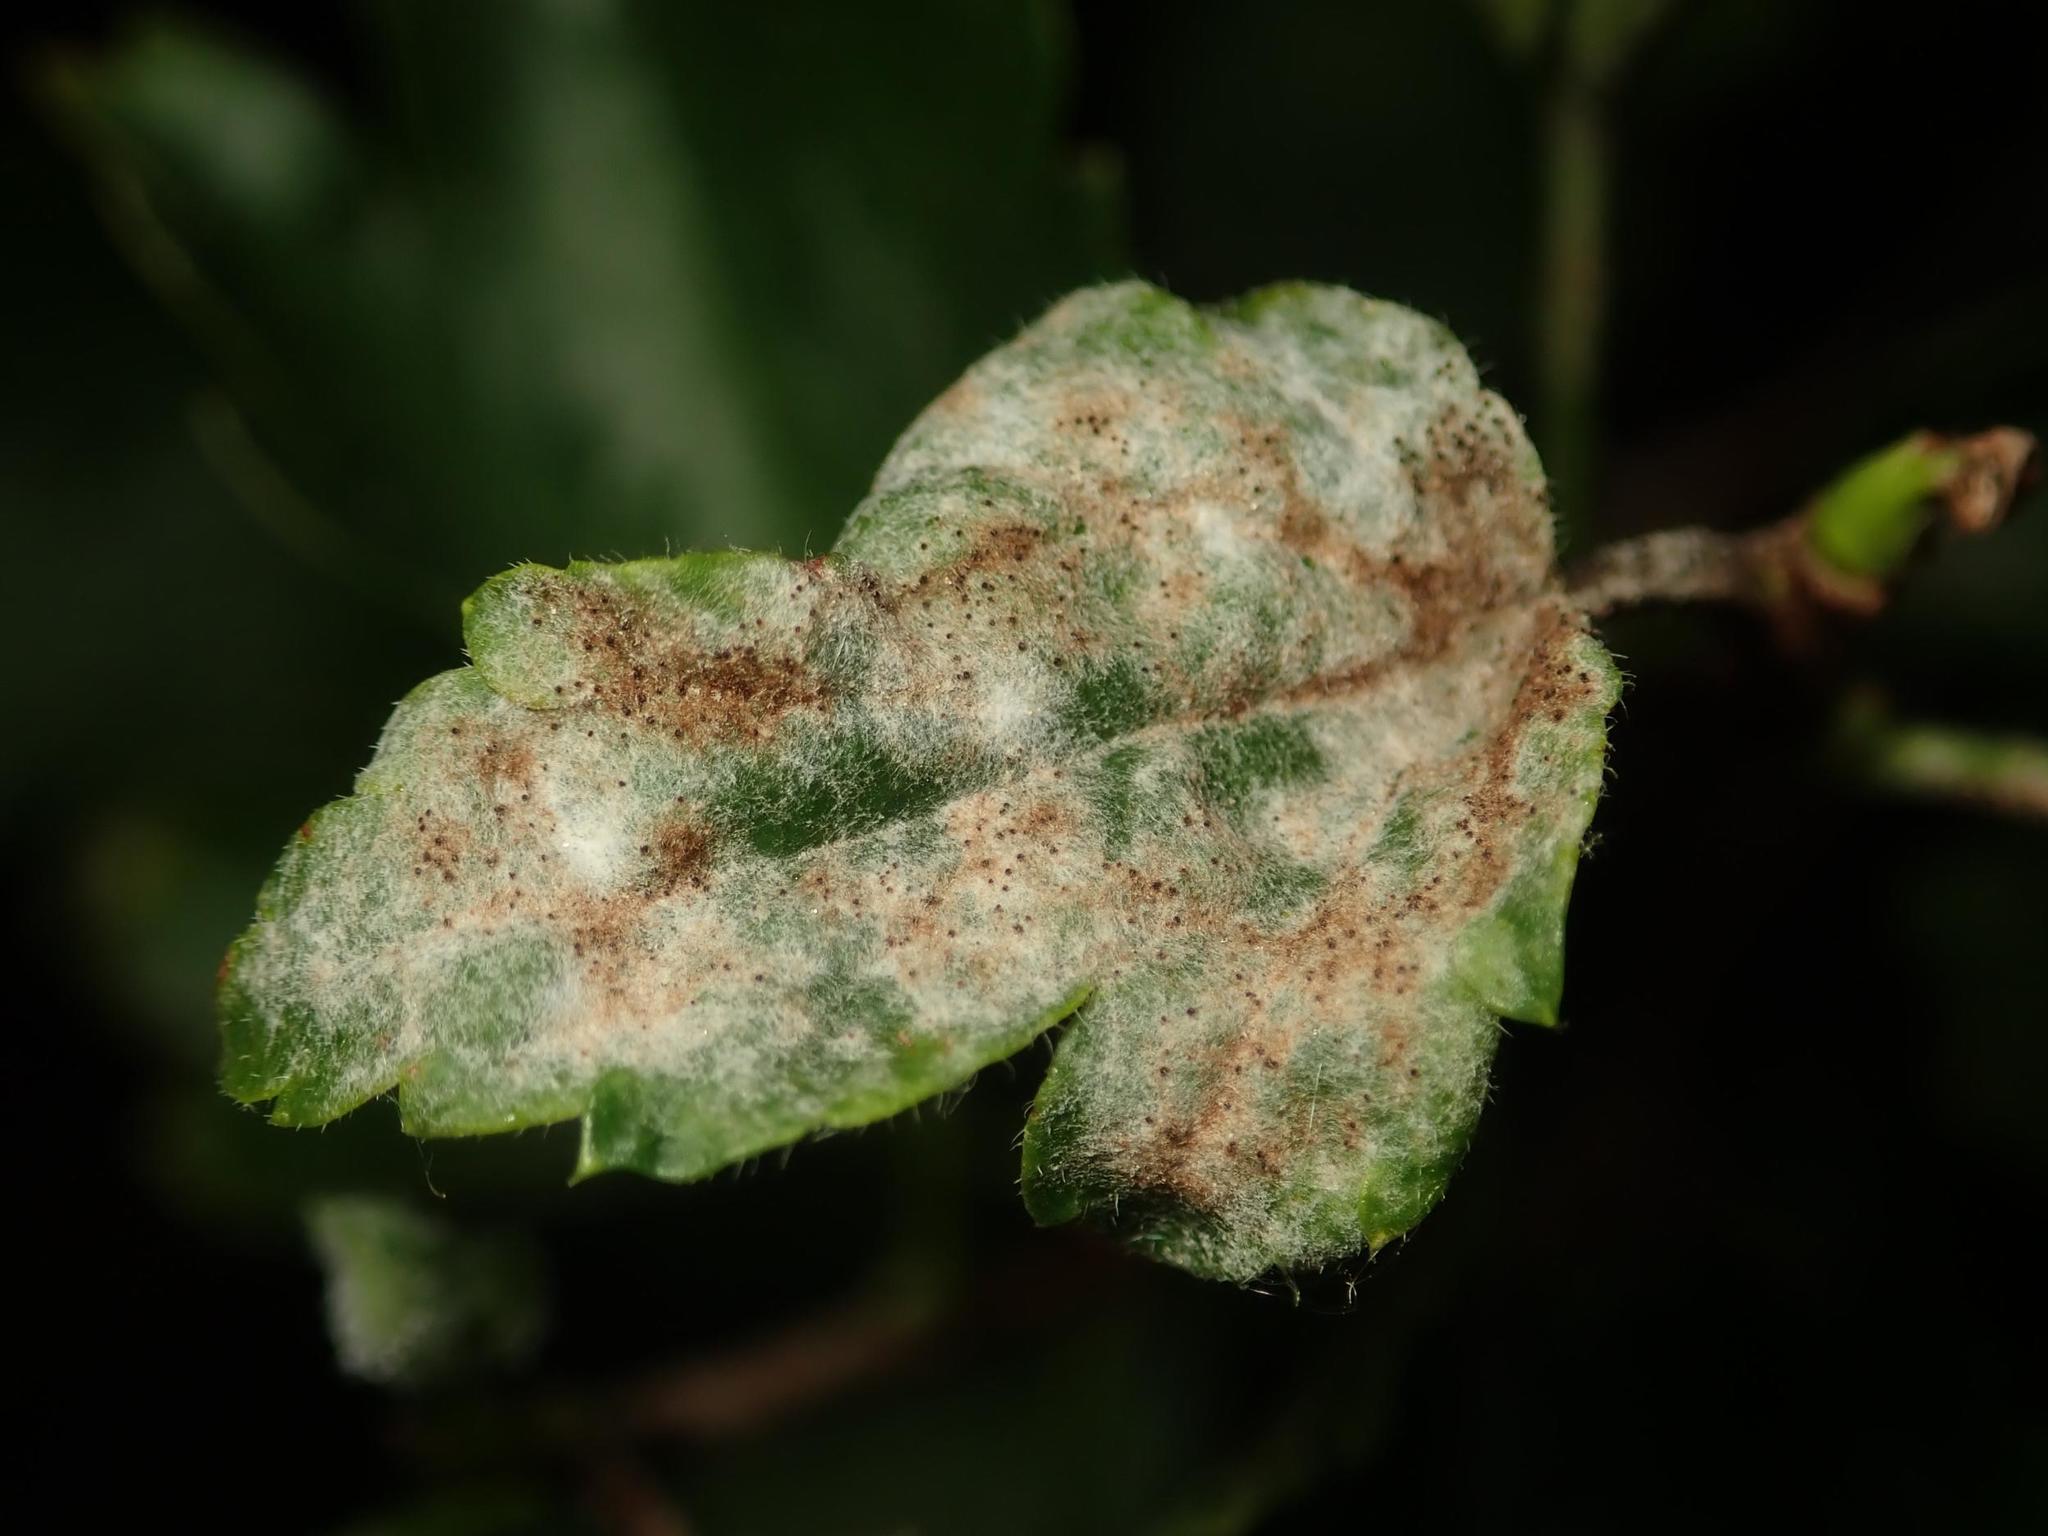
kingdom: Fungi
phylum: Ascomycota
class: Leotiomycetes
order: Helotiales
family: Erysiphaceae
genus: Podosphaera
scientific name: Podosphaera mors-uvae
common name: American gooseberry mildew
